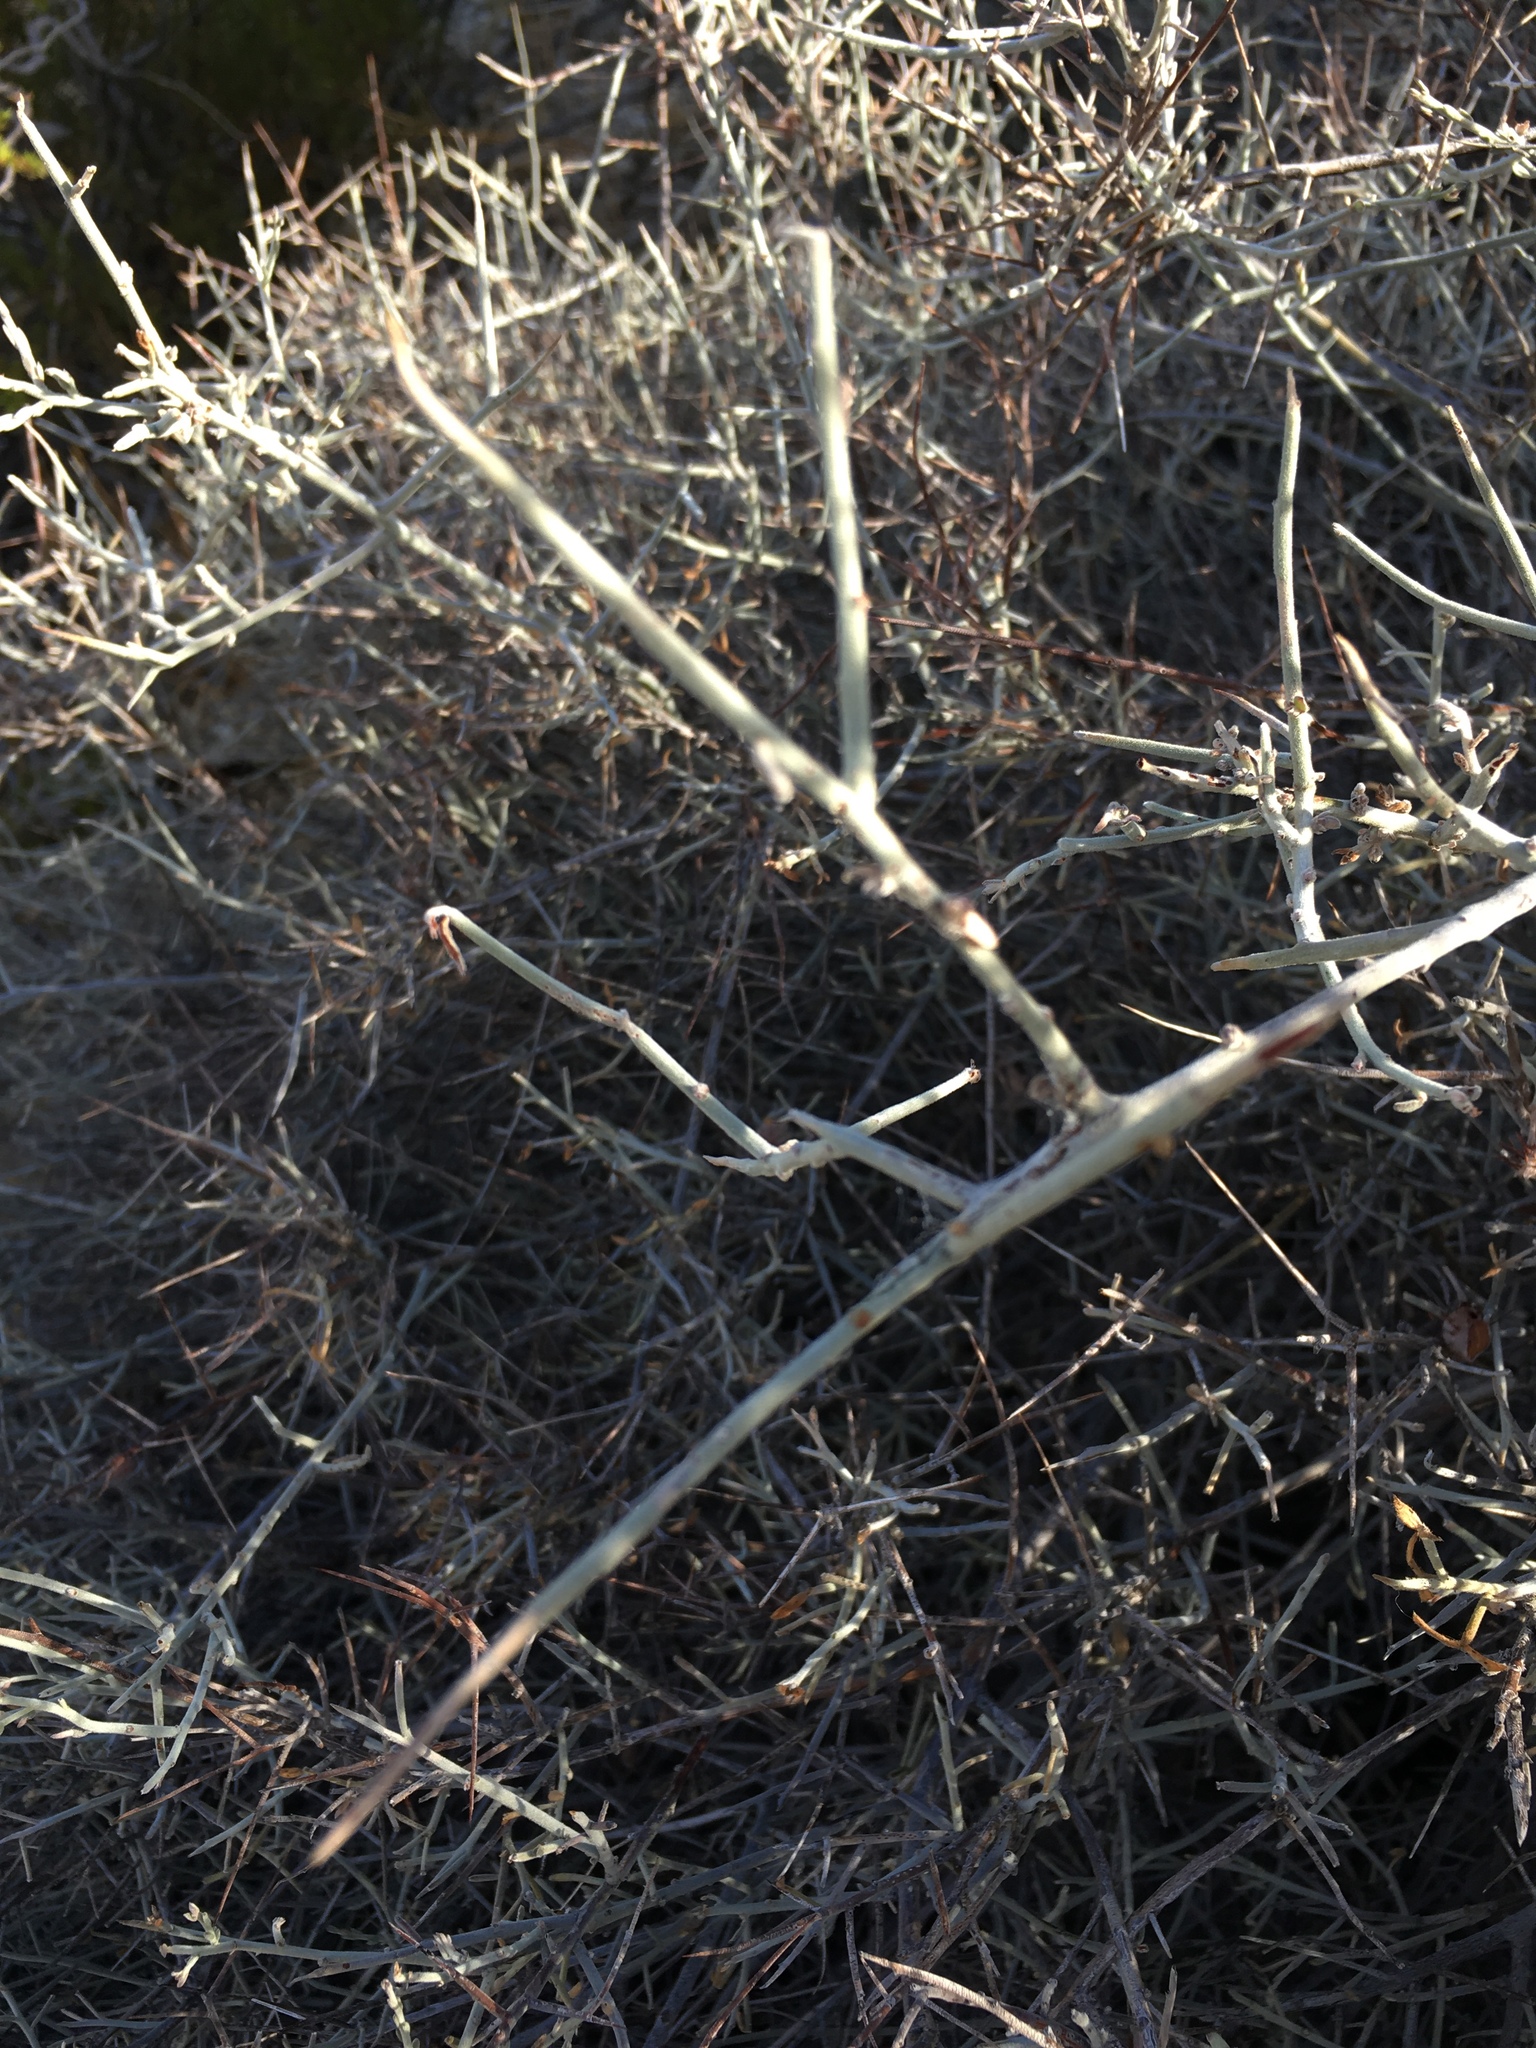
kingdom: Plantae
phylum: Tracheophyta
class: Magnoliopsida
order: Zygophyllales
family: Krameriaceae
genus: Krameria
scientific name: Krameria bicolor
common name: White ratany
